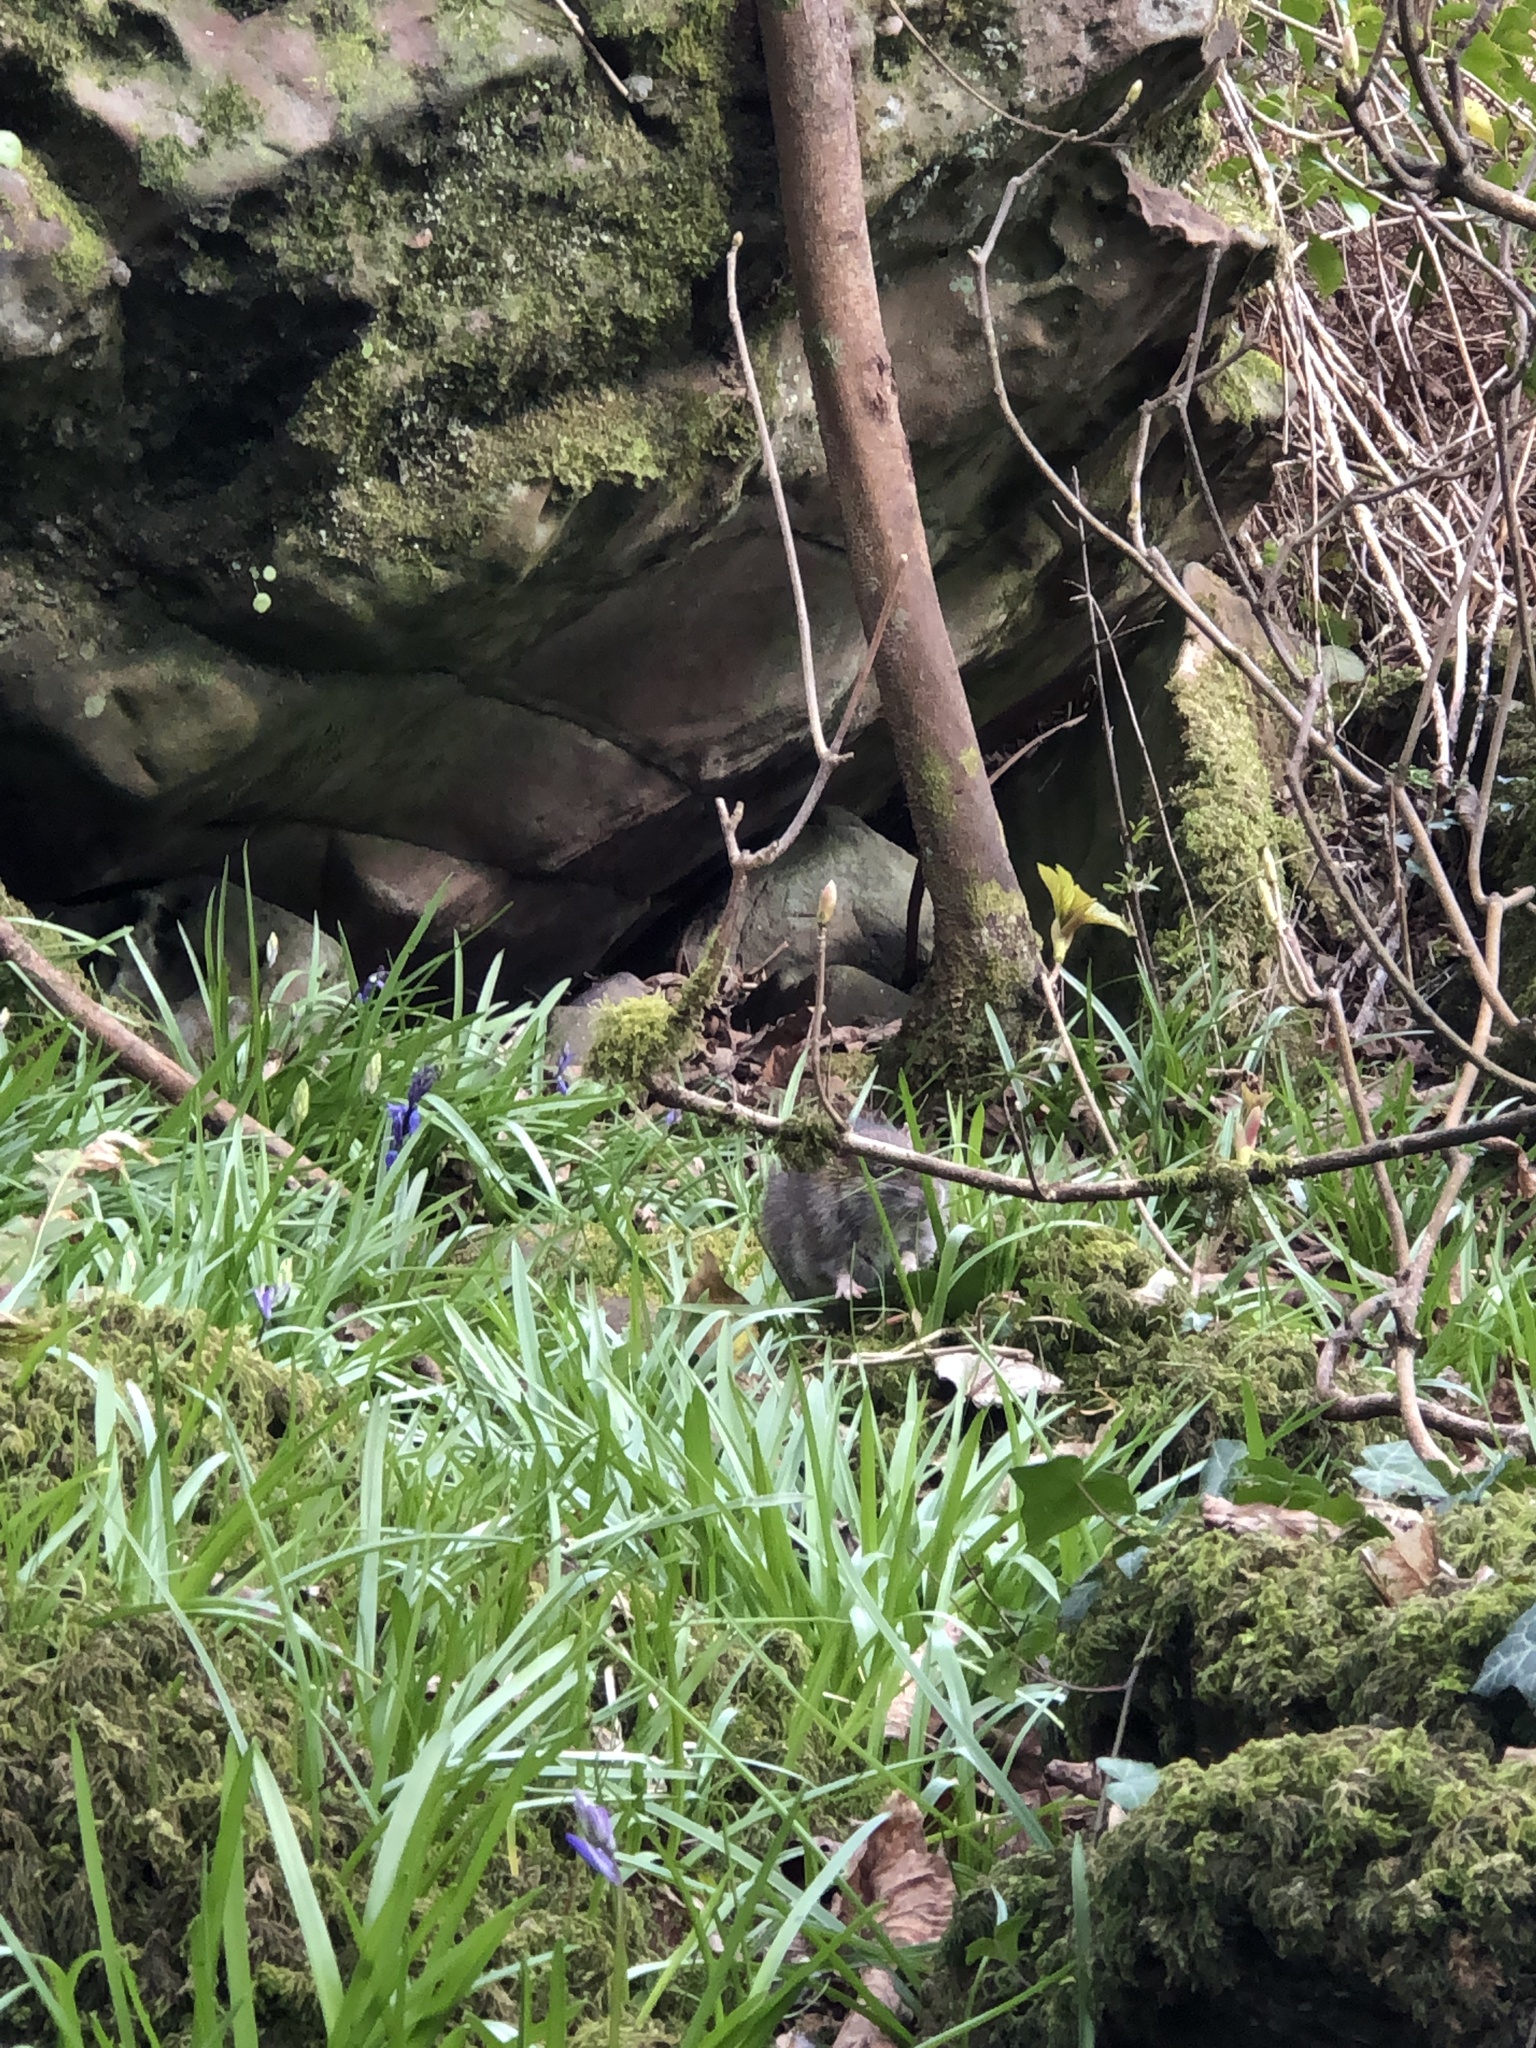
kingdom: Animalia
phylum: Chordata
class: Mammalia
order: Rodentia
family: Muridae
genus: Rattus
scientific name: Rattus norvegicus
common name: Brown rat
